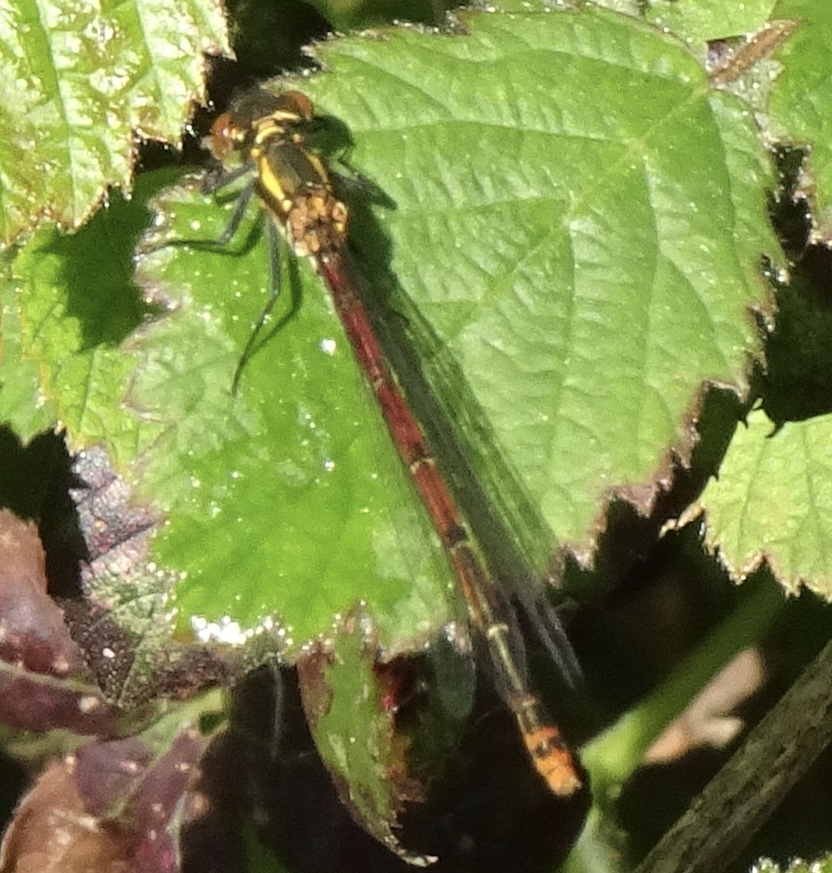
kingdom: Animalia
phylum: Arthropoda
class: Insecta
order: Odonata
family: Coenagrionidae
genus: Pyrrhosoma
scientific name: Pyrrhosoma nymphula
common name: Large red damsel
